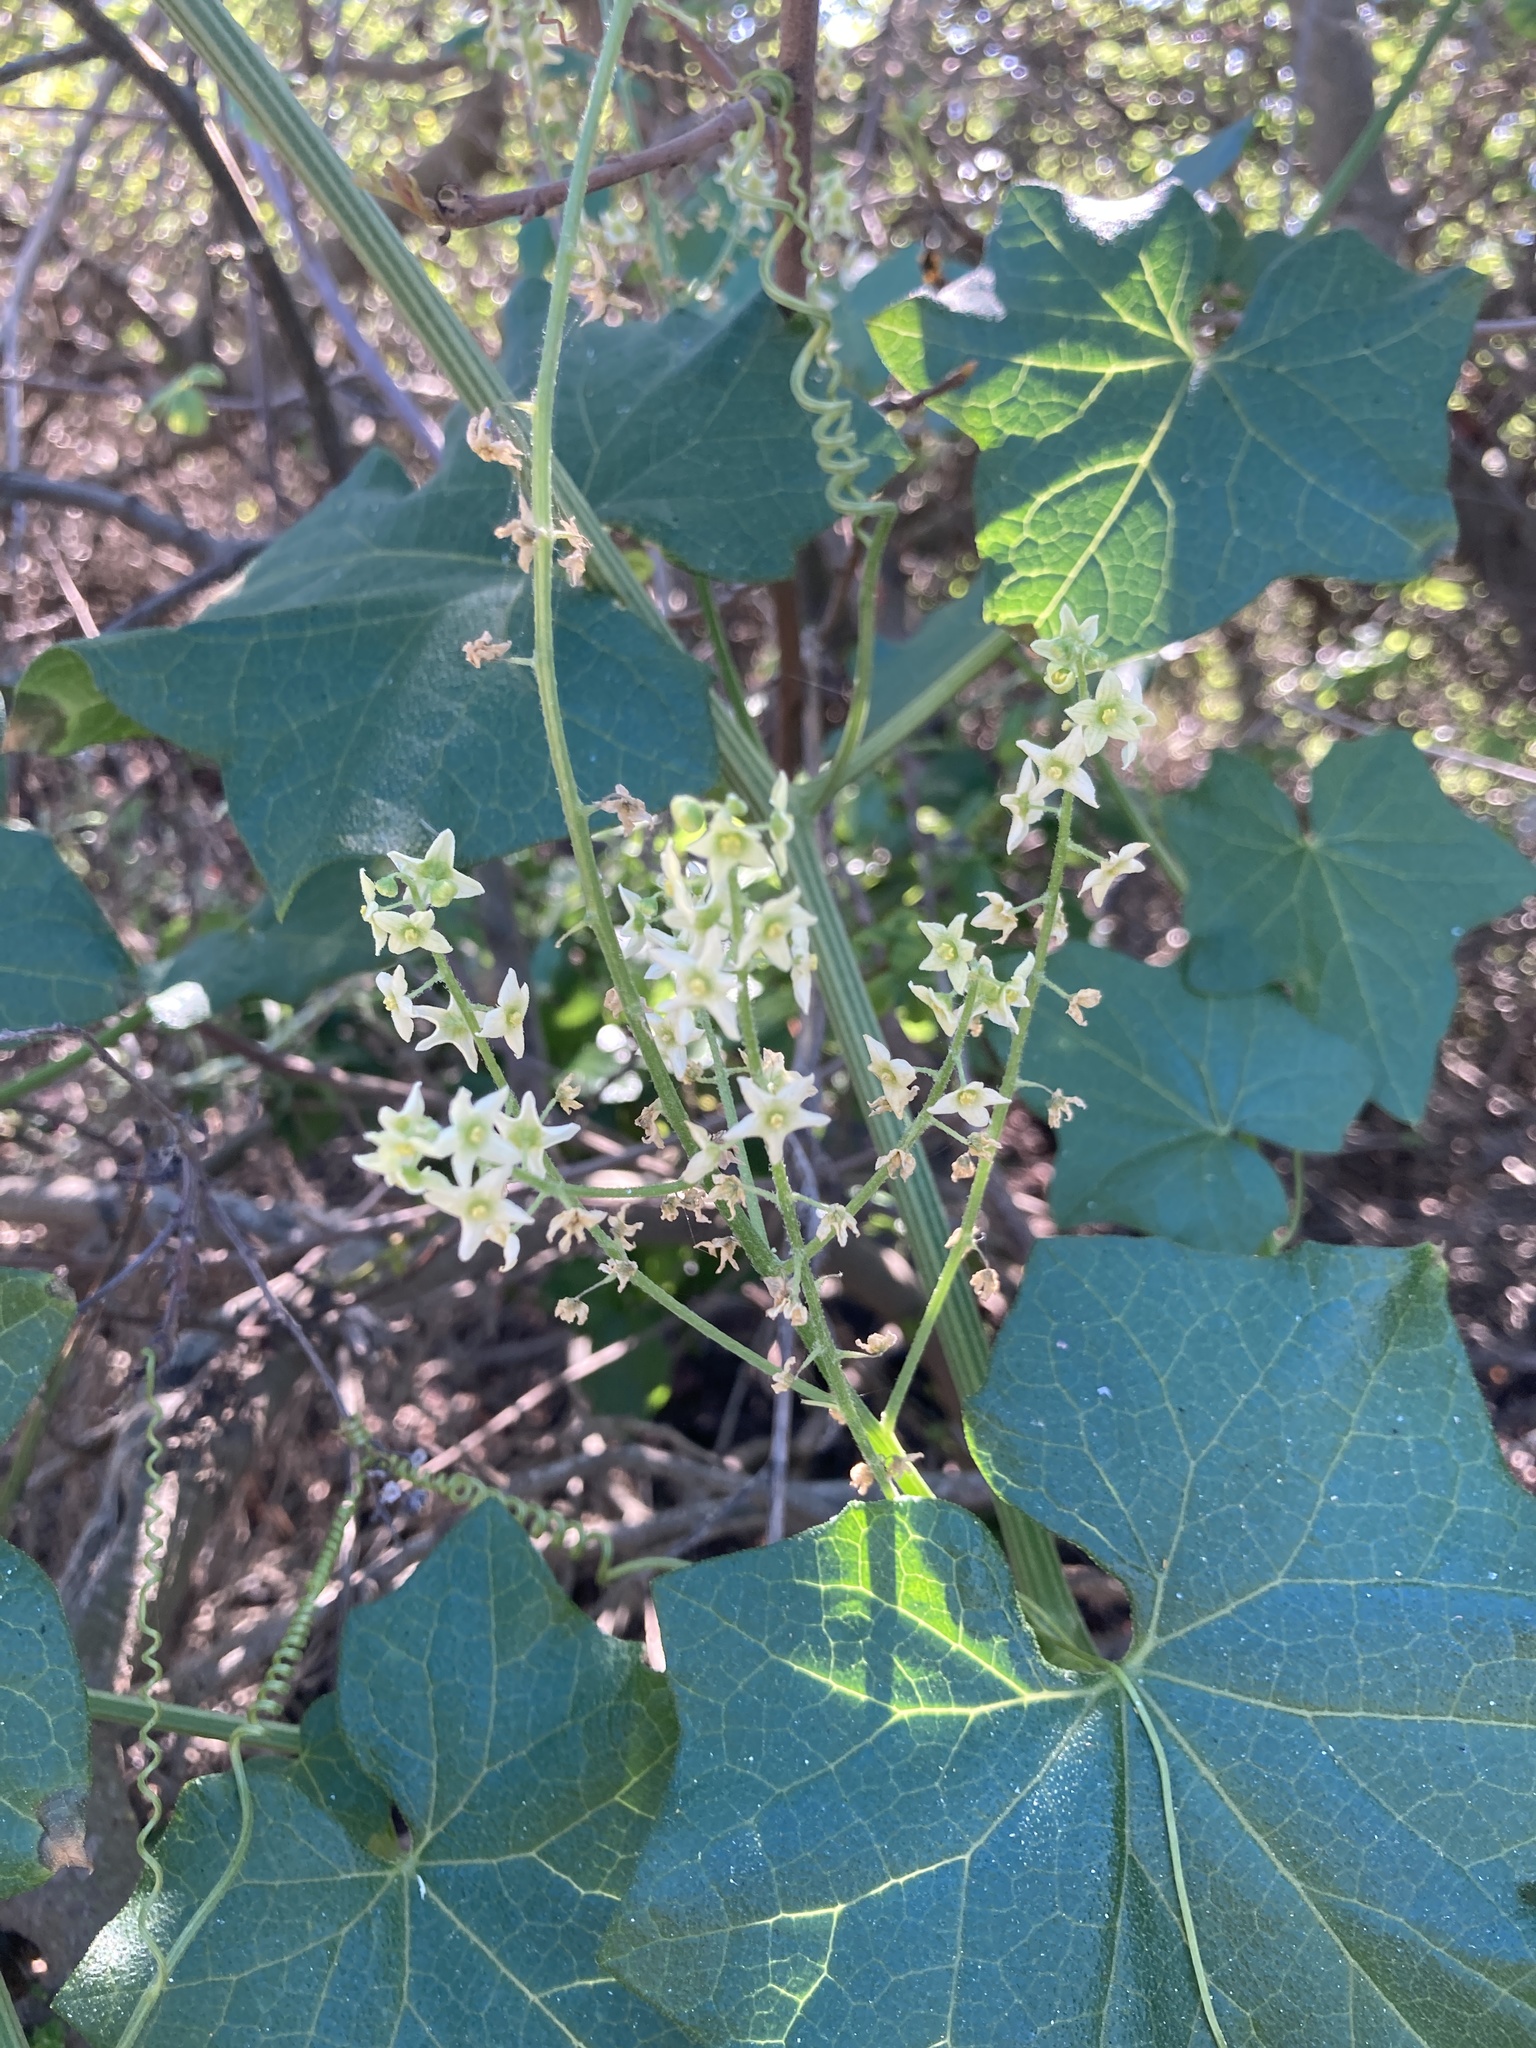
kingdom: Plantae
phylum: Tracheophyta
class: Magnoliopsida
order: Cucurbitales
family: Cucurbitaceae
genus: Marah
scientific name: Marah fabacea
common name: California manroot
